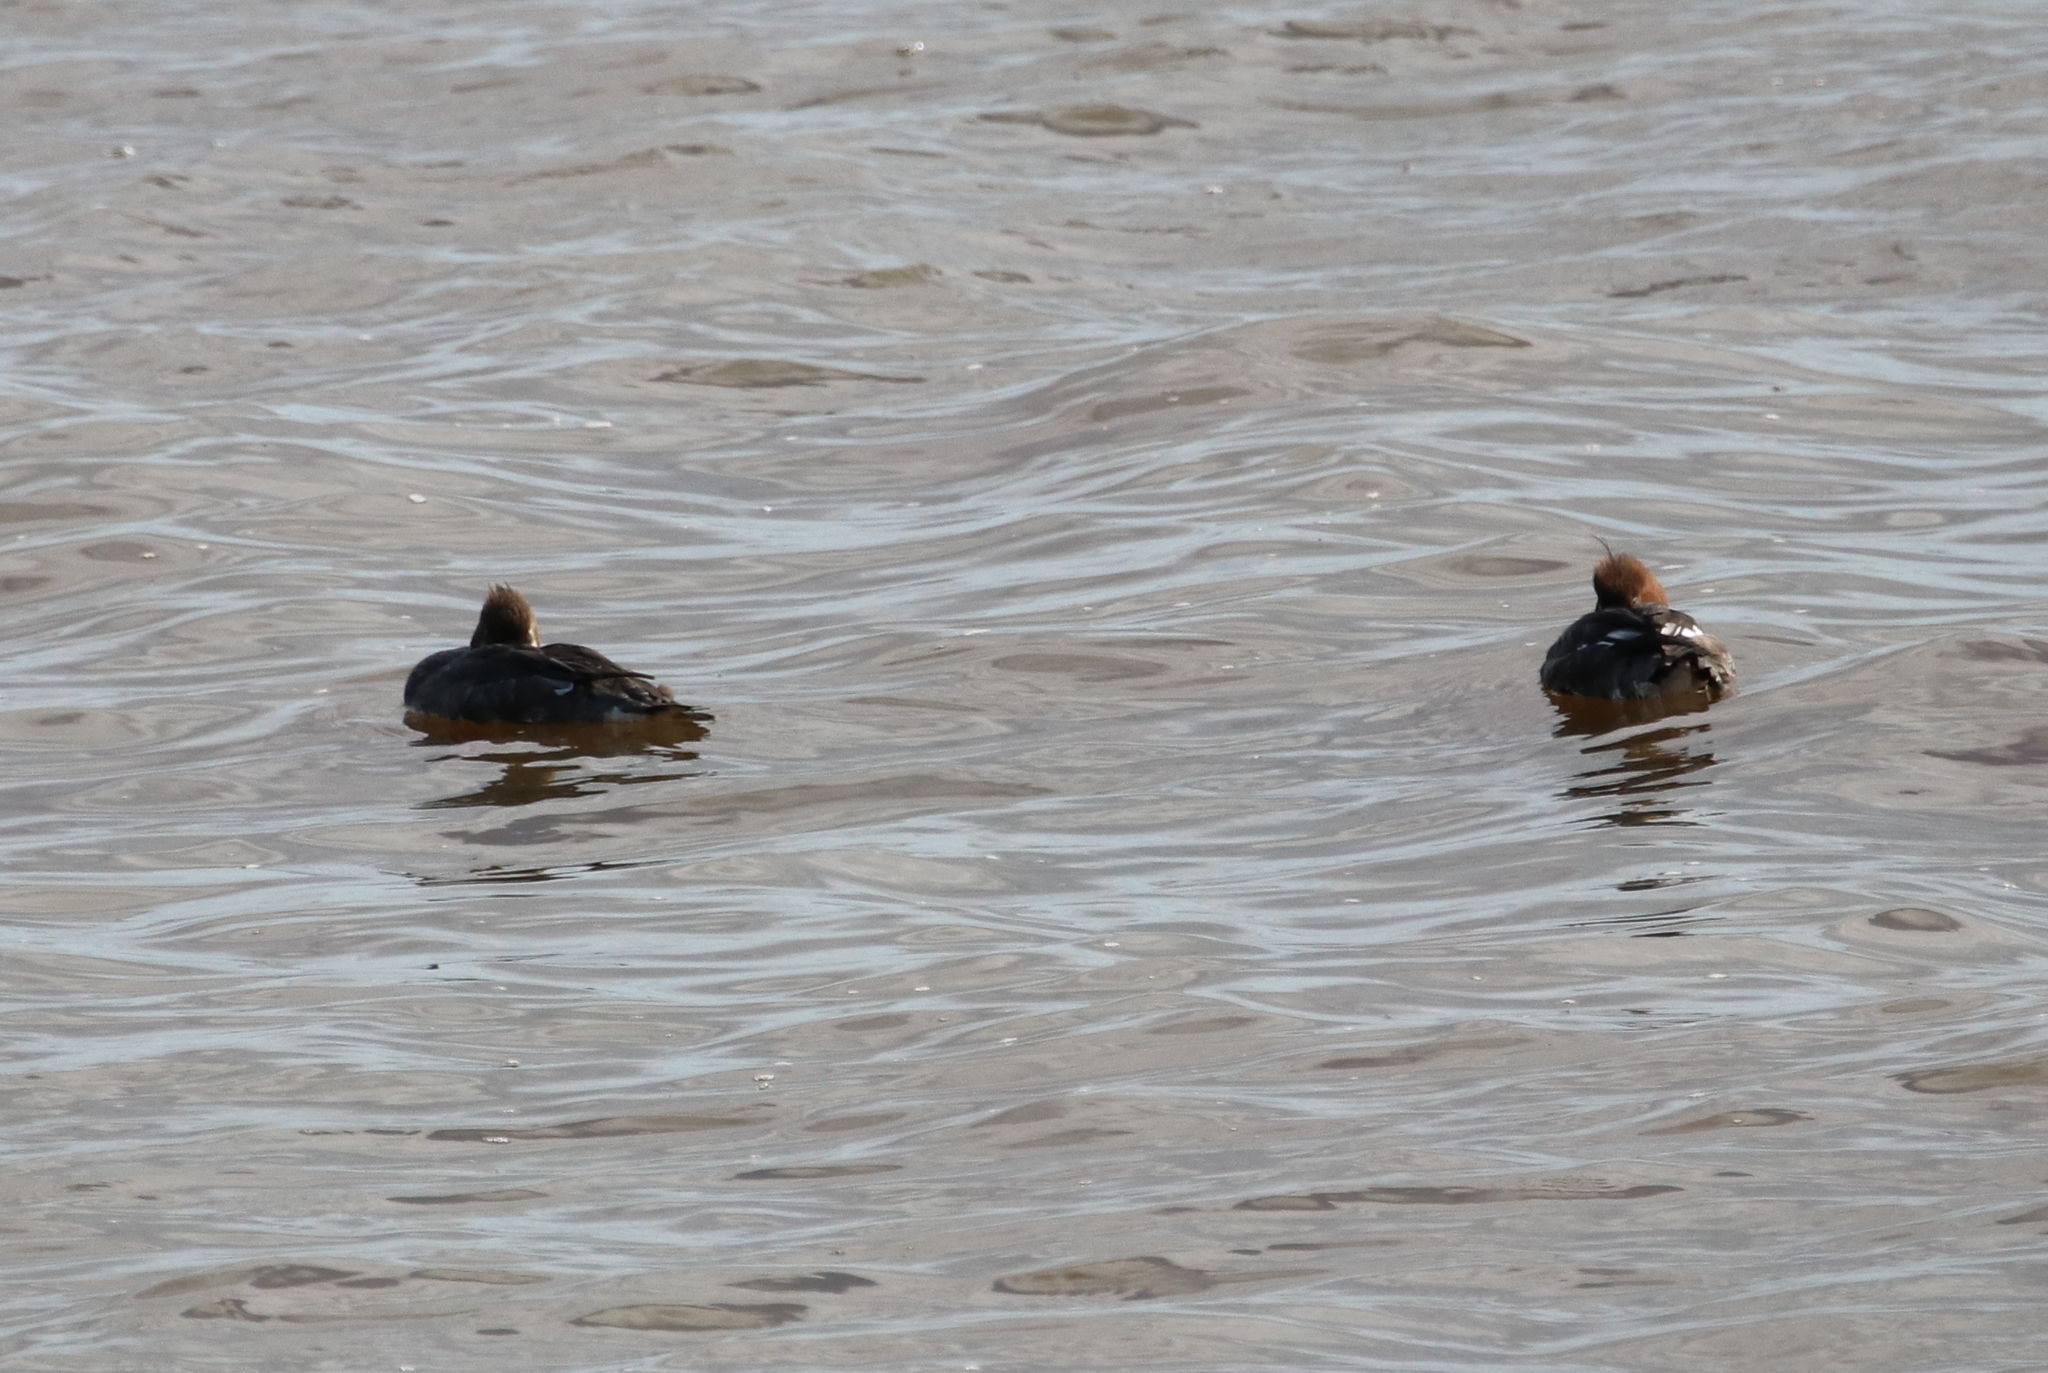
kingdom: Animalia
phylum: Chordata
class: Aves
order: Anseriformes
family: Anatidae
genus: Mergus
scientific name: Mergus serrator
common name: Red-breasted merganser
